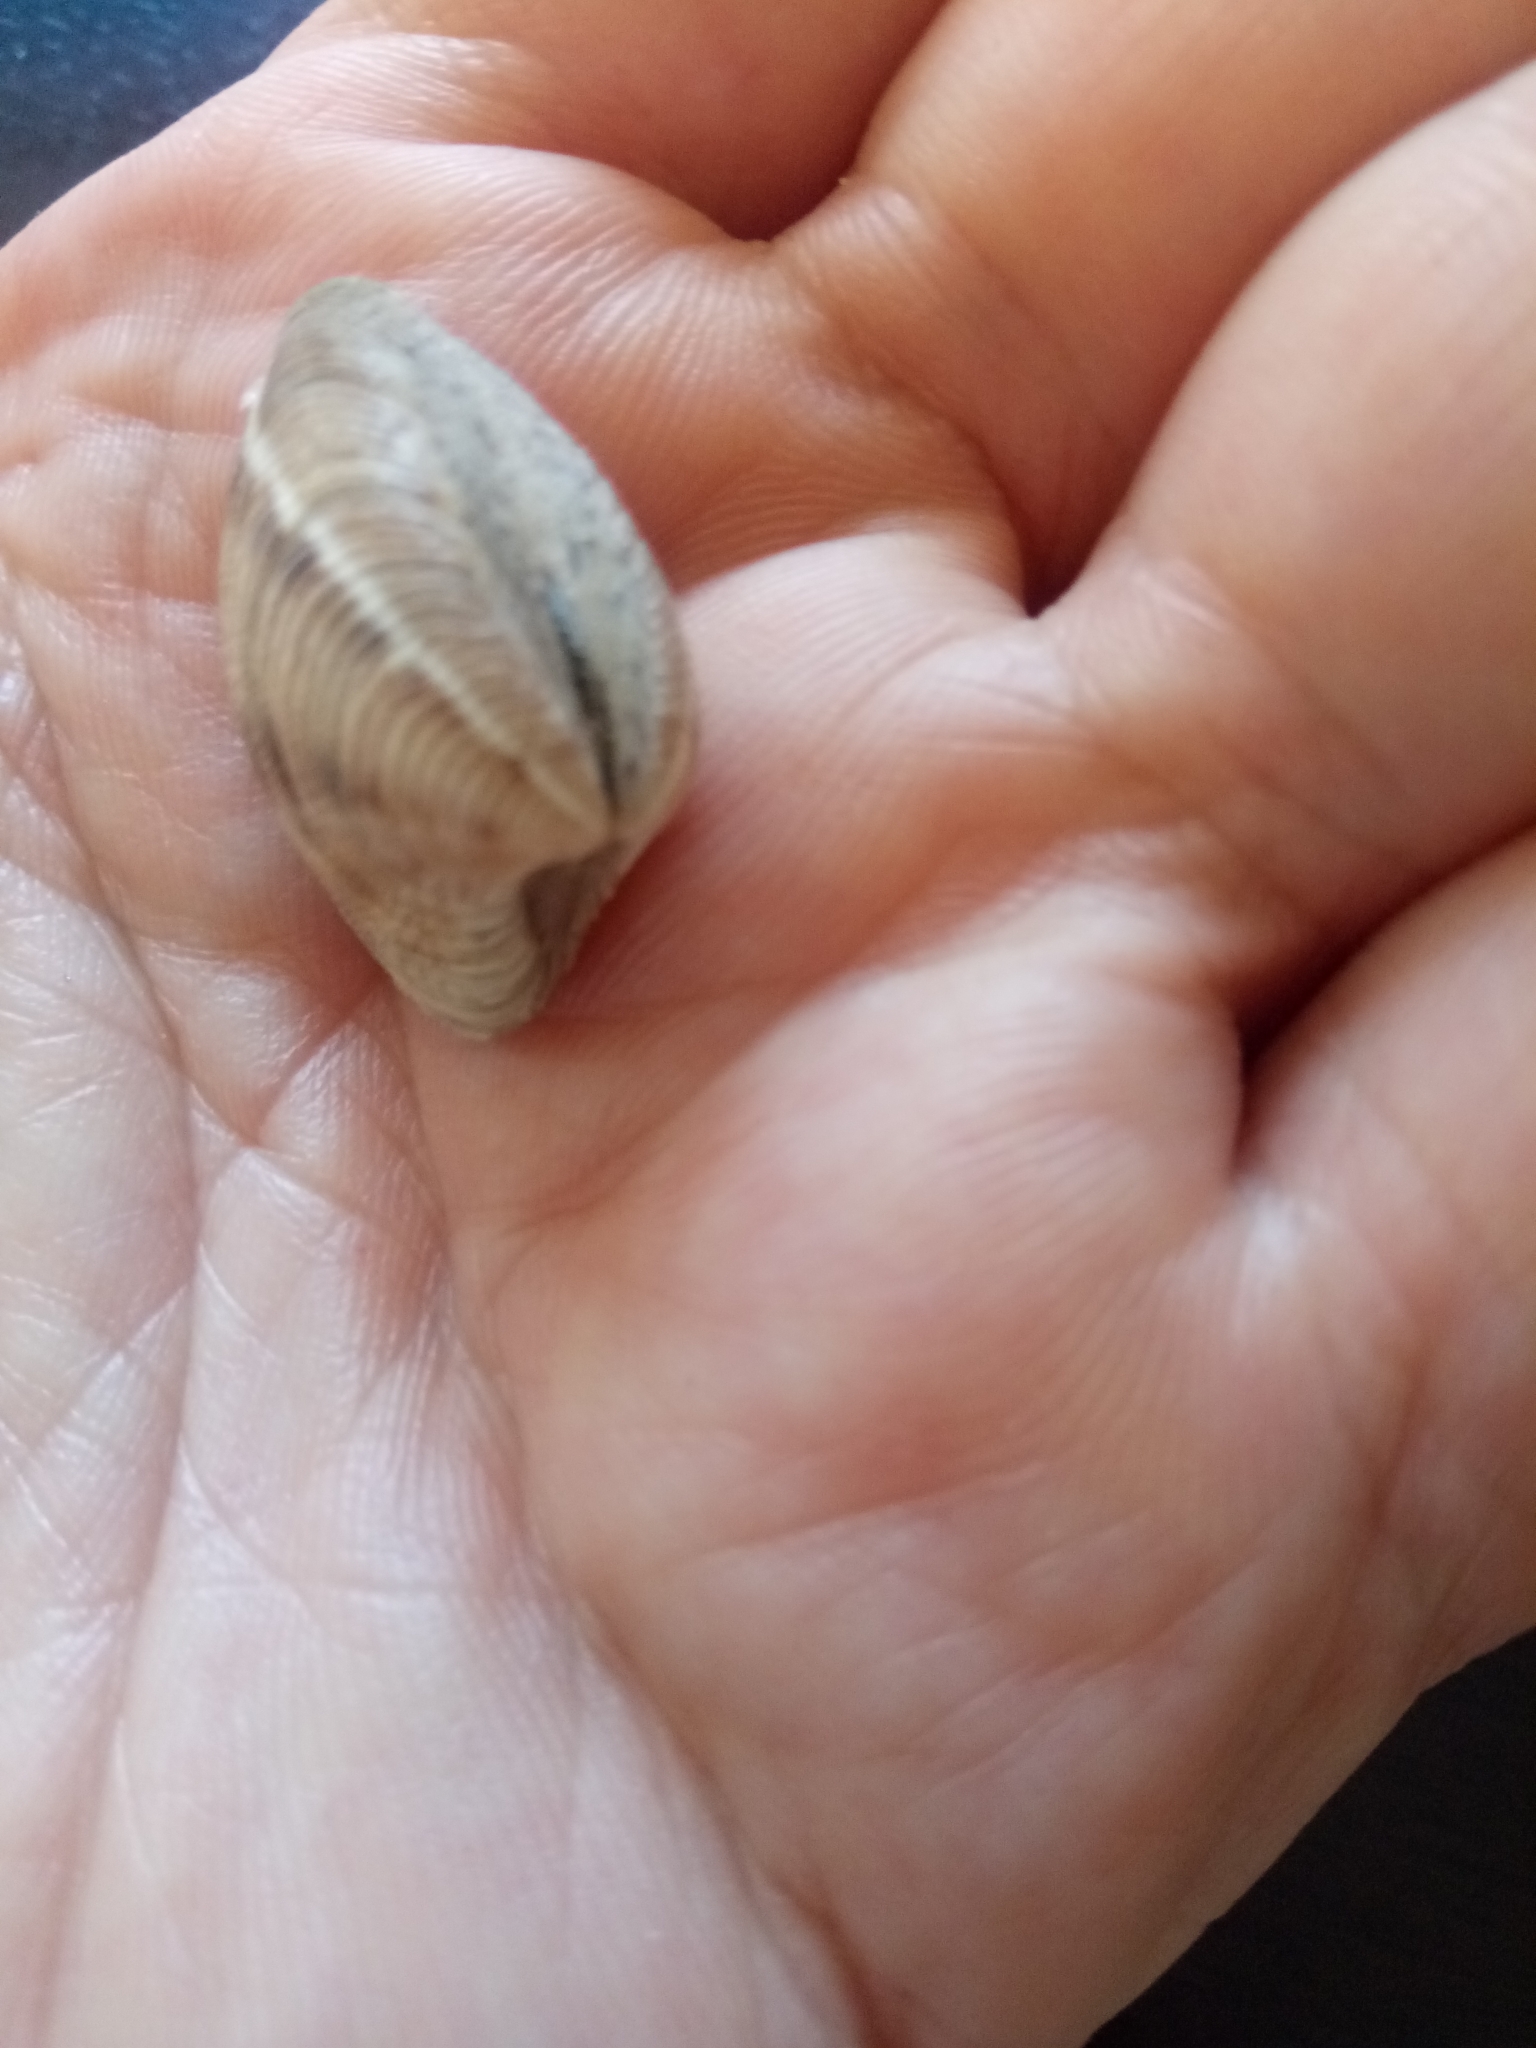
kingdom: Animalia
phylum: Mollusca
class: Bivalvia
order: Venerida
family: Veneridae
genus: Chamelea
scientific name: Chamelea gallina
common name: Chicken venus
